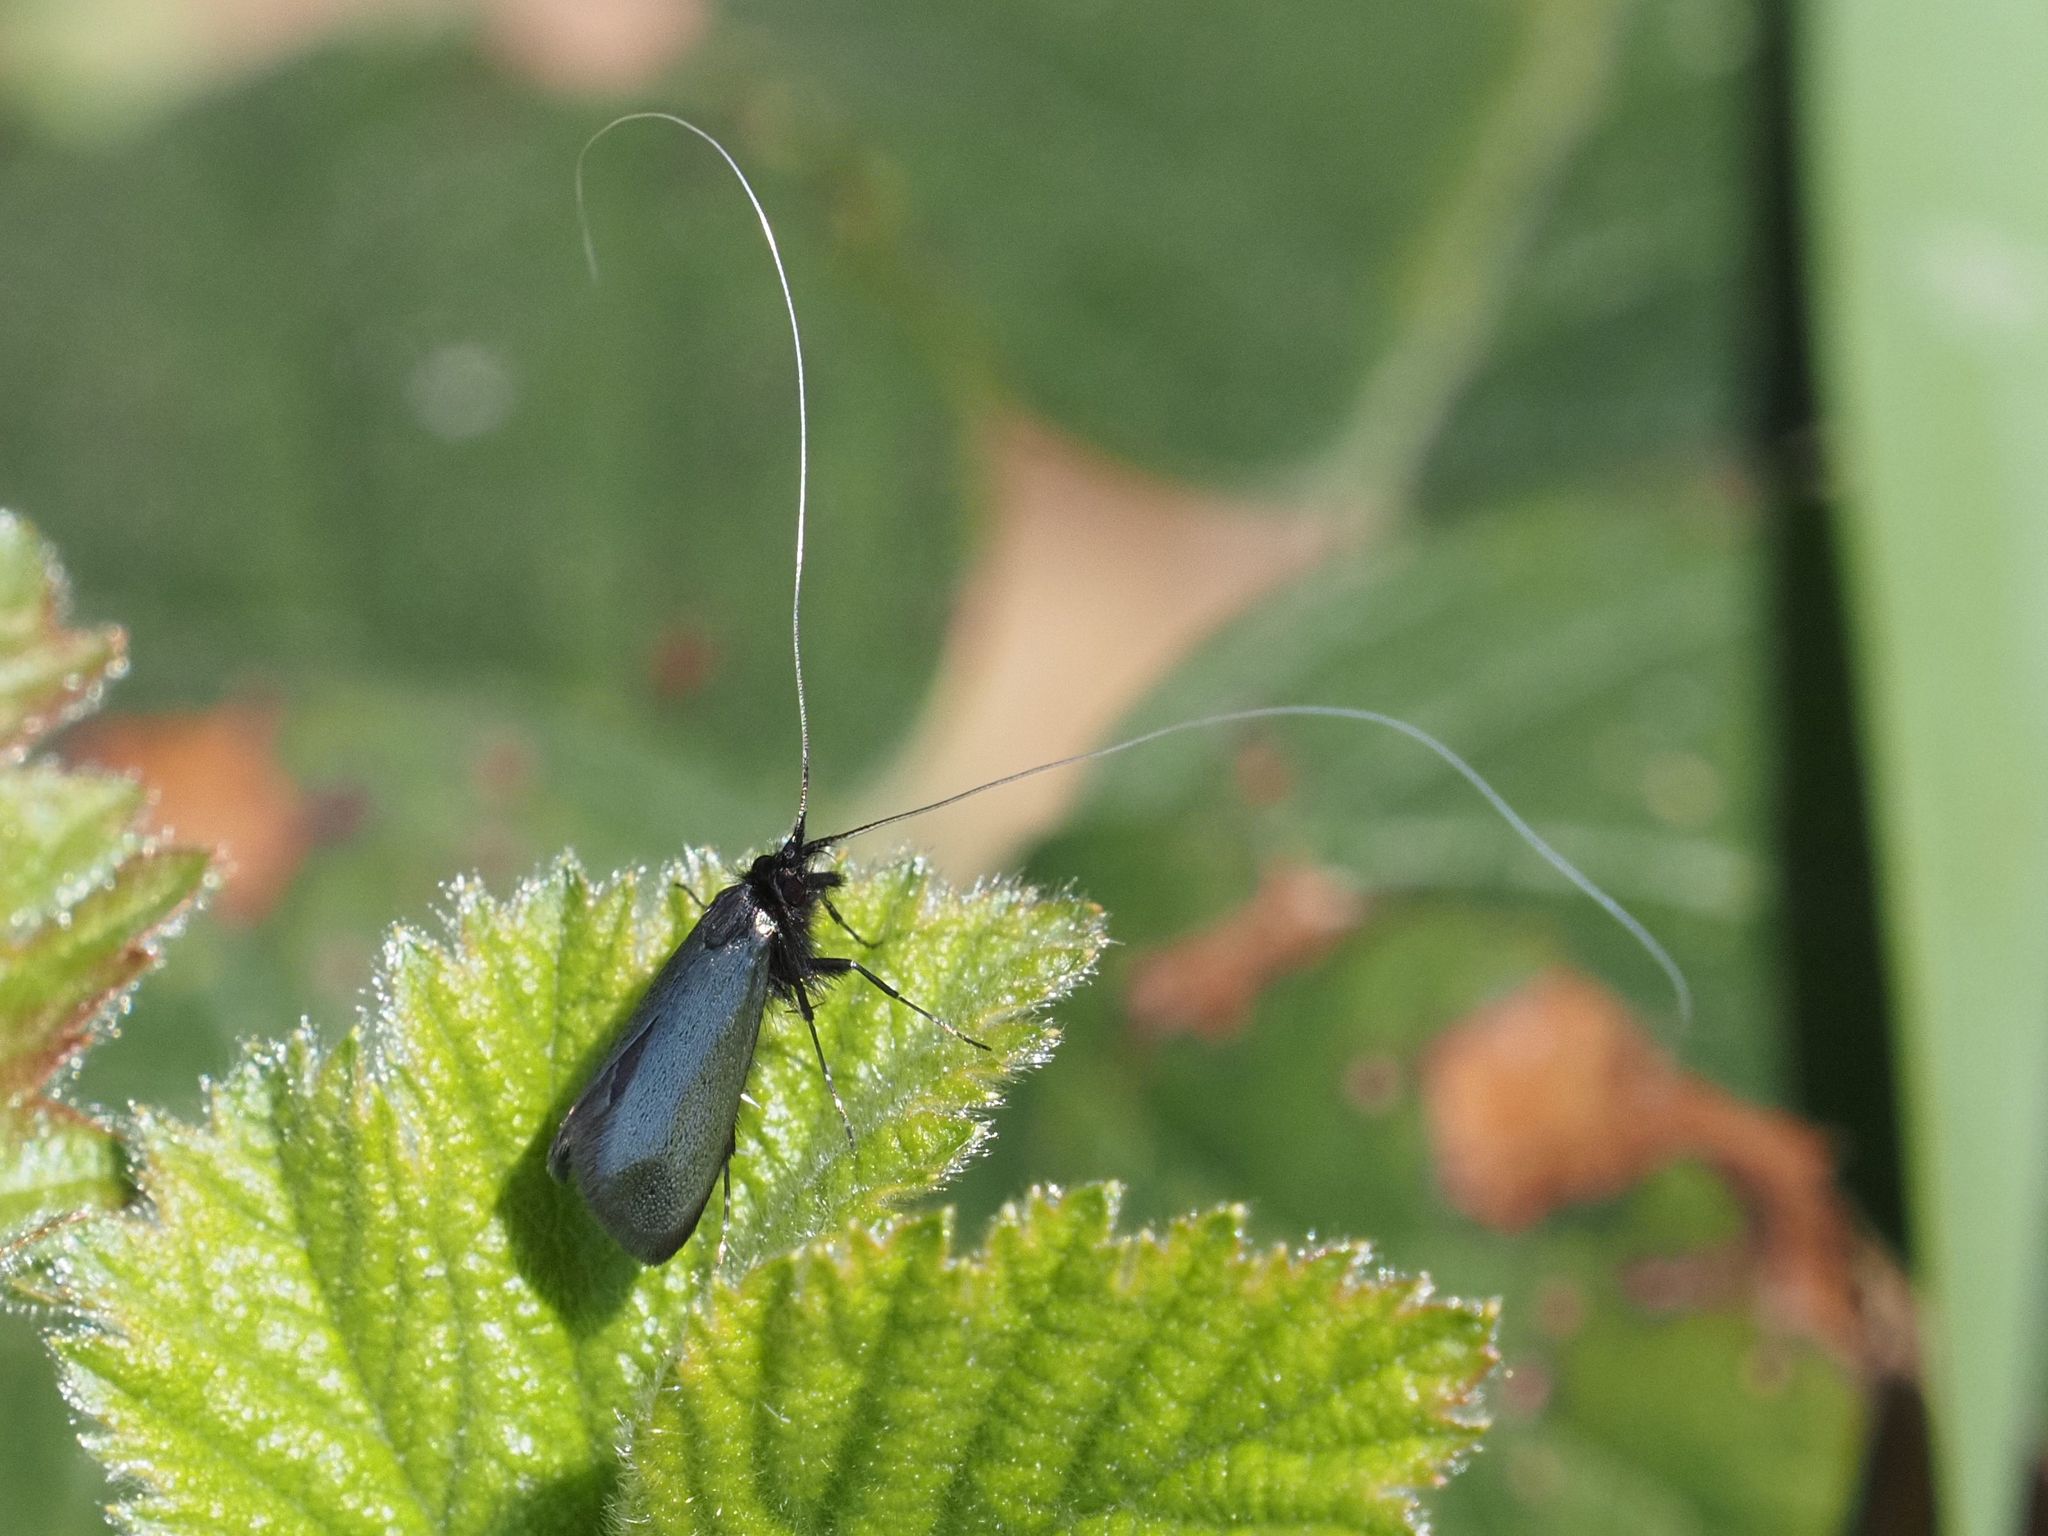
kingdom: Animalia
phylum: Arthropoda
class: Insecta
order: Lepidoptera
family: Adelidae
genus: Adela
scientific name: Adela viridella
